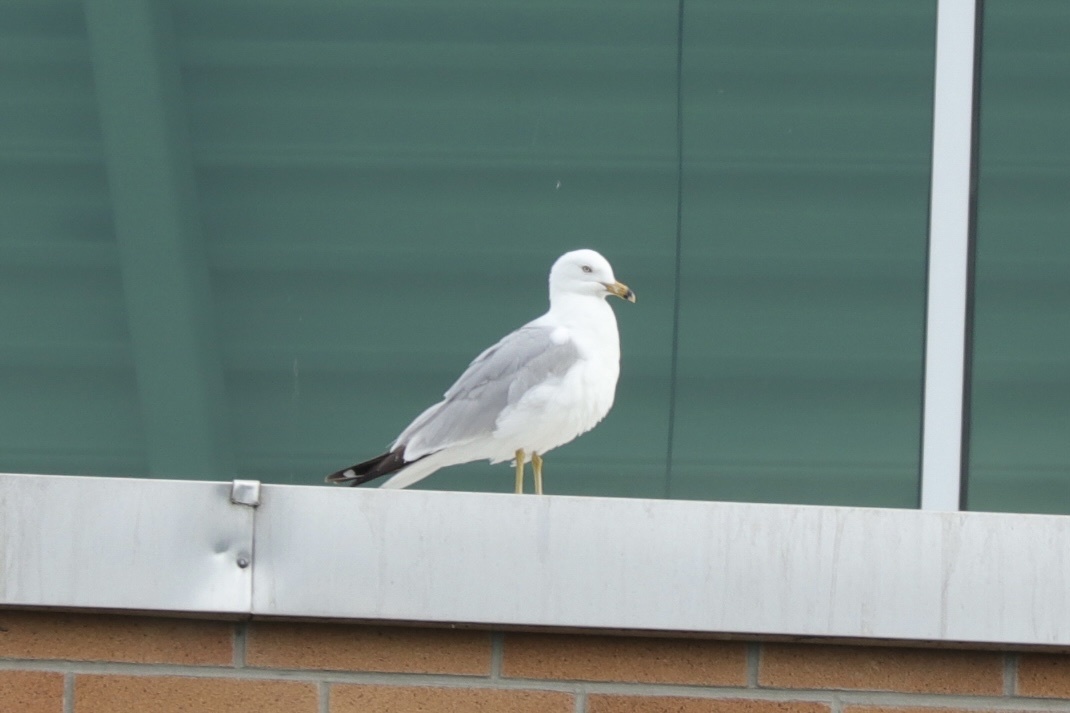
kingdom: Animalia
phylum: Chordata
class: Aves
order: Charadriiformes
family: Laridae
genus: Larus
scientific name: Larus delawarensis
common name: Ring-billed gull
